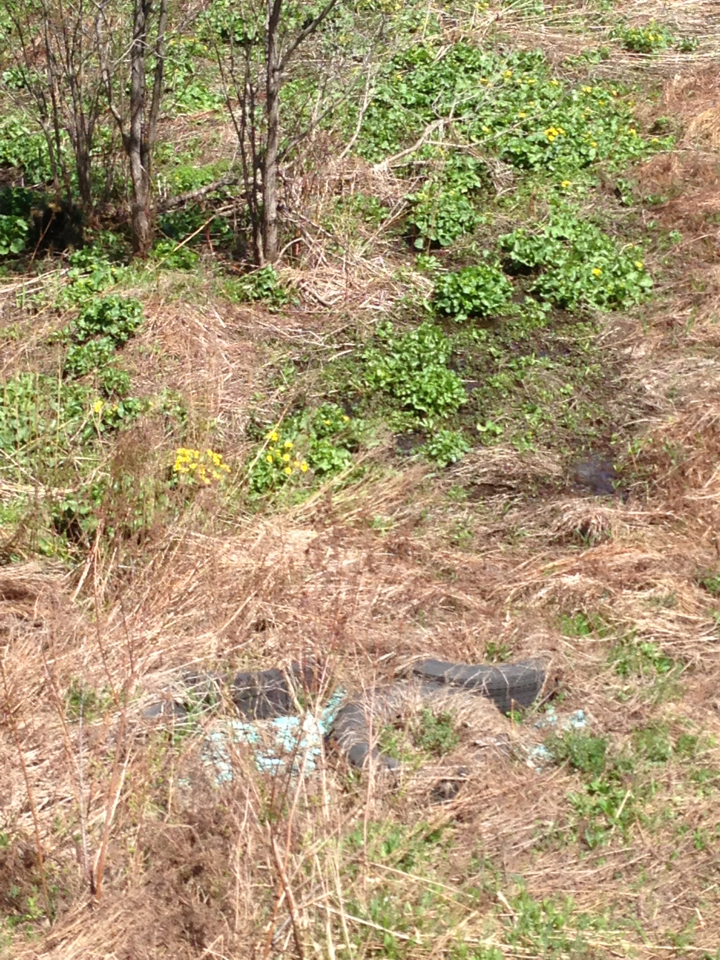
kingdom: Plantae
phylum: Tracheophyta
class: Magnoliopsida
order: Ranunculales
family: Ranunculaceae
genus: Caltha
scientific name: Caltha palustris
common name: Marsh marigold
